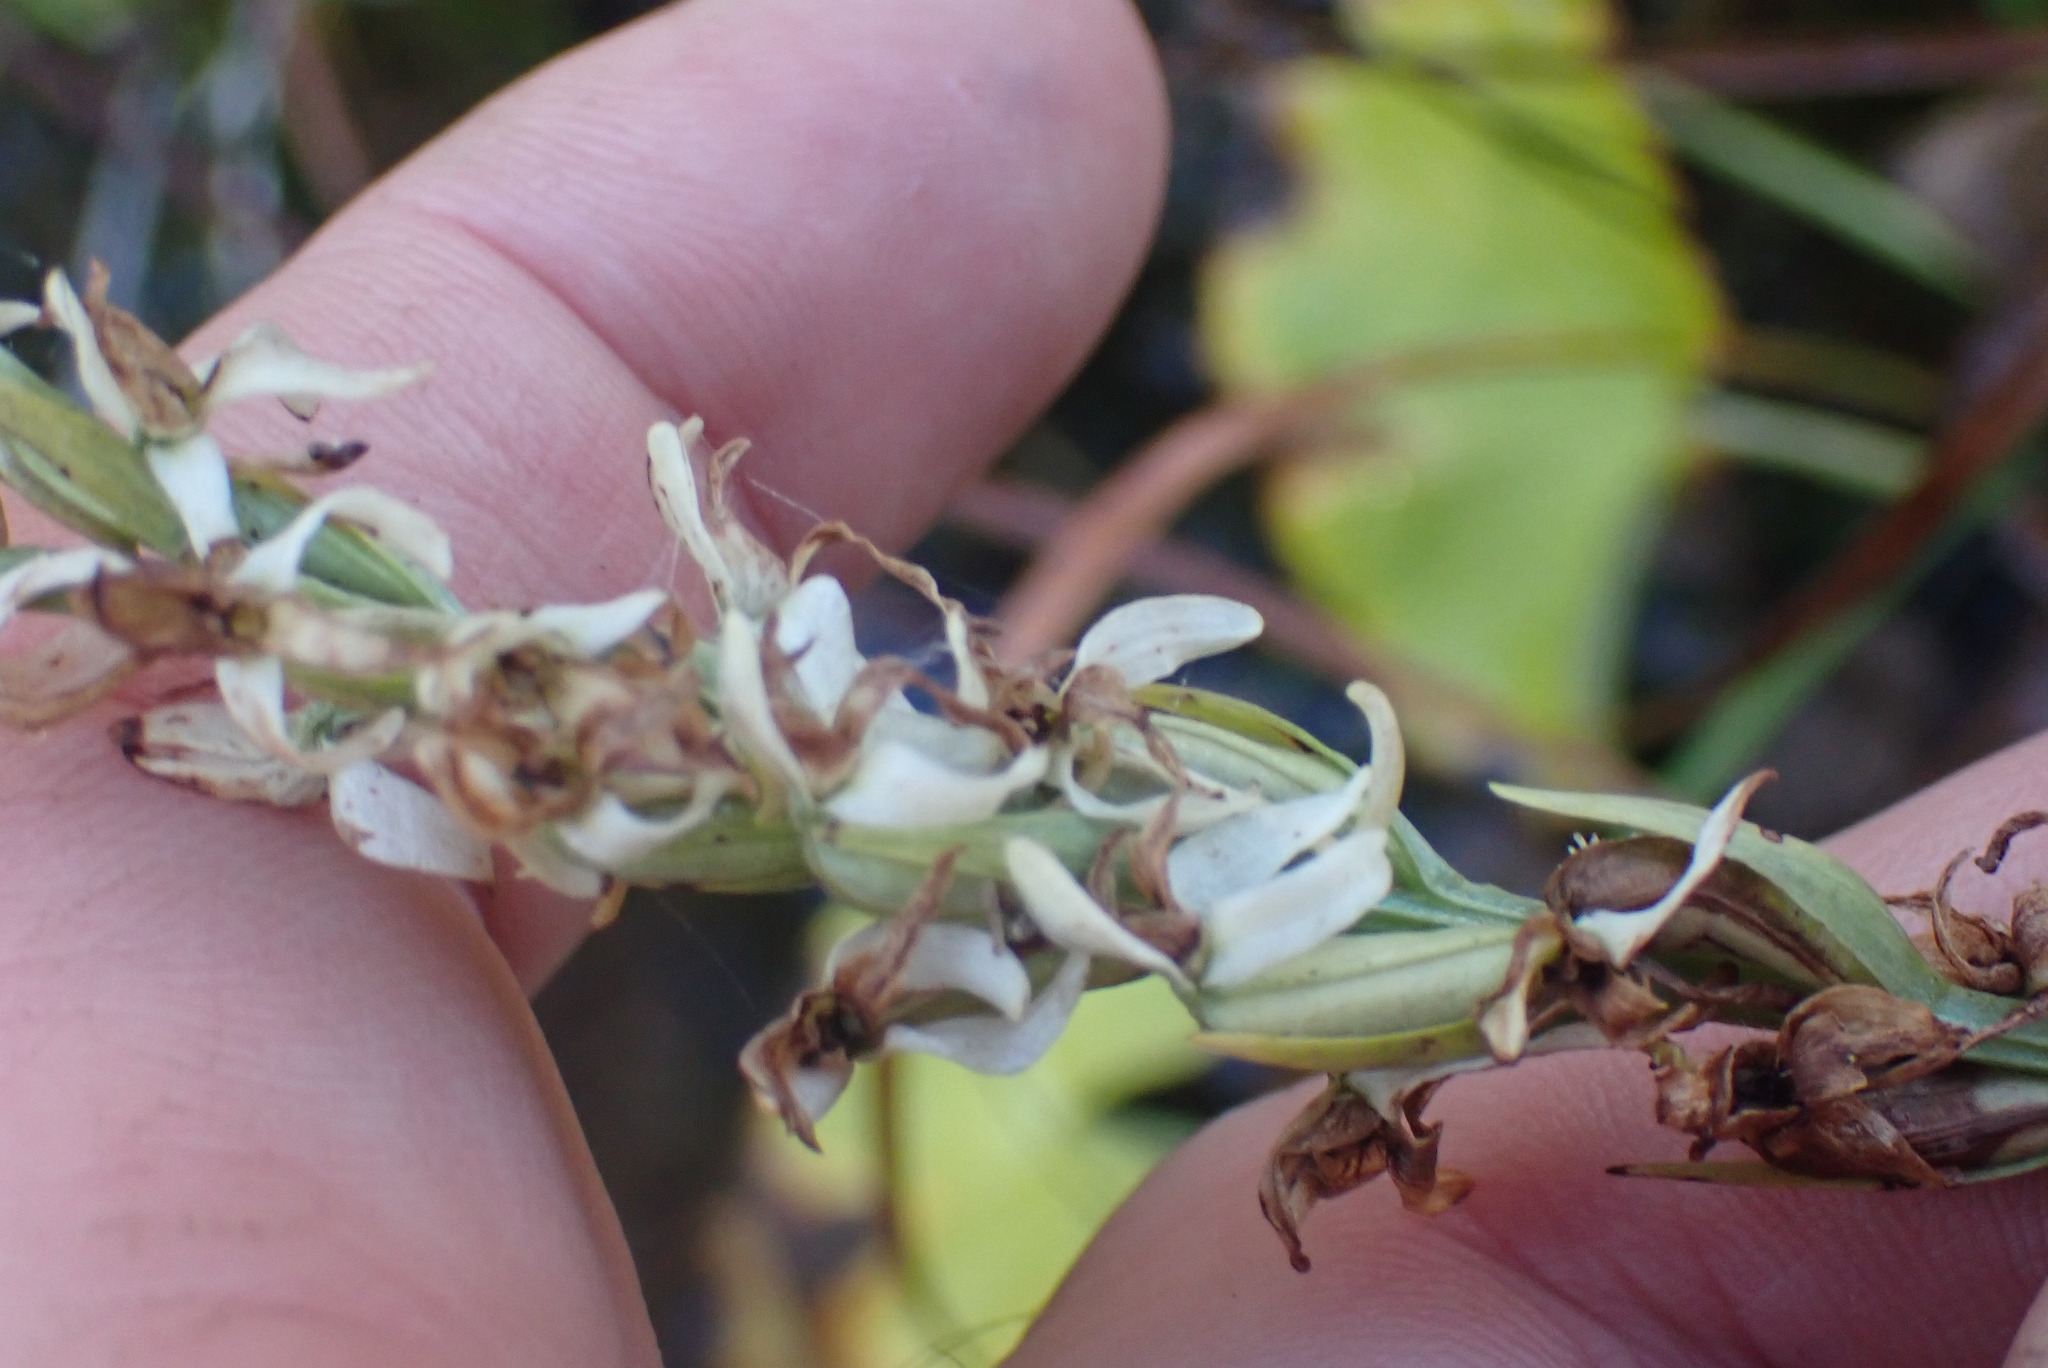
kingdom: Plantae
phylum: Tracheophyta
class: Liliopsida
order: Asparagales
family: Orchidaceae
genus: Platanthera
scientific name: Platanthera dilatata
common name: Bog candles
